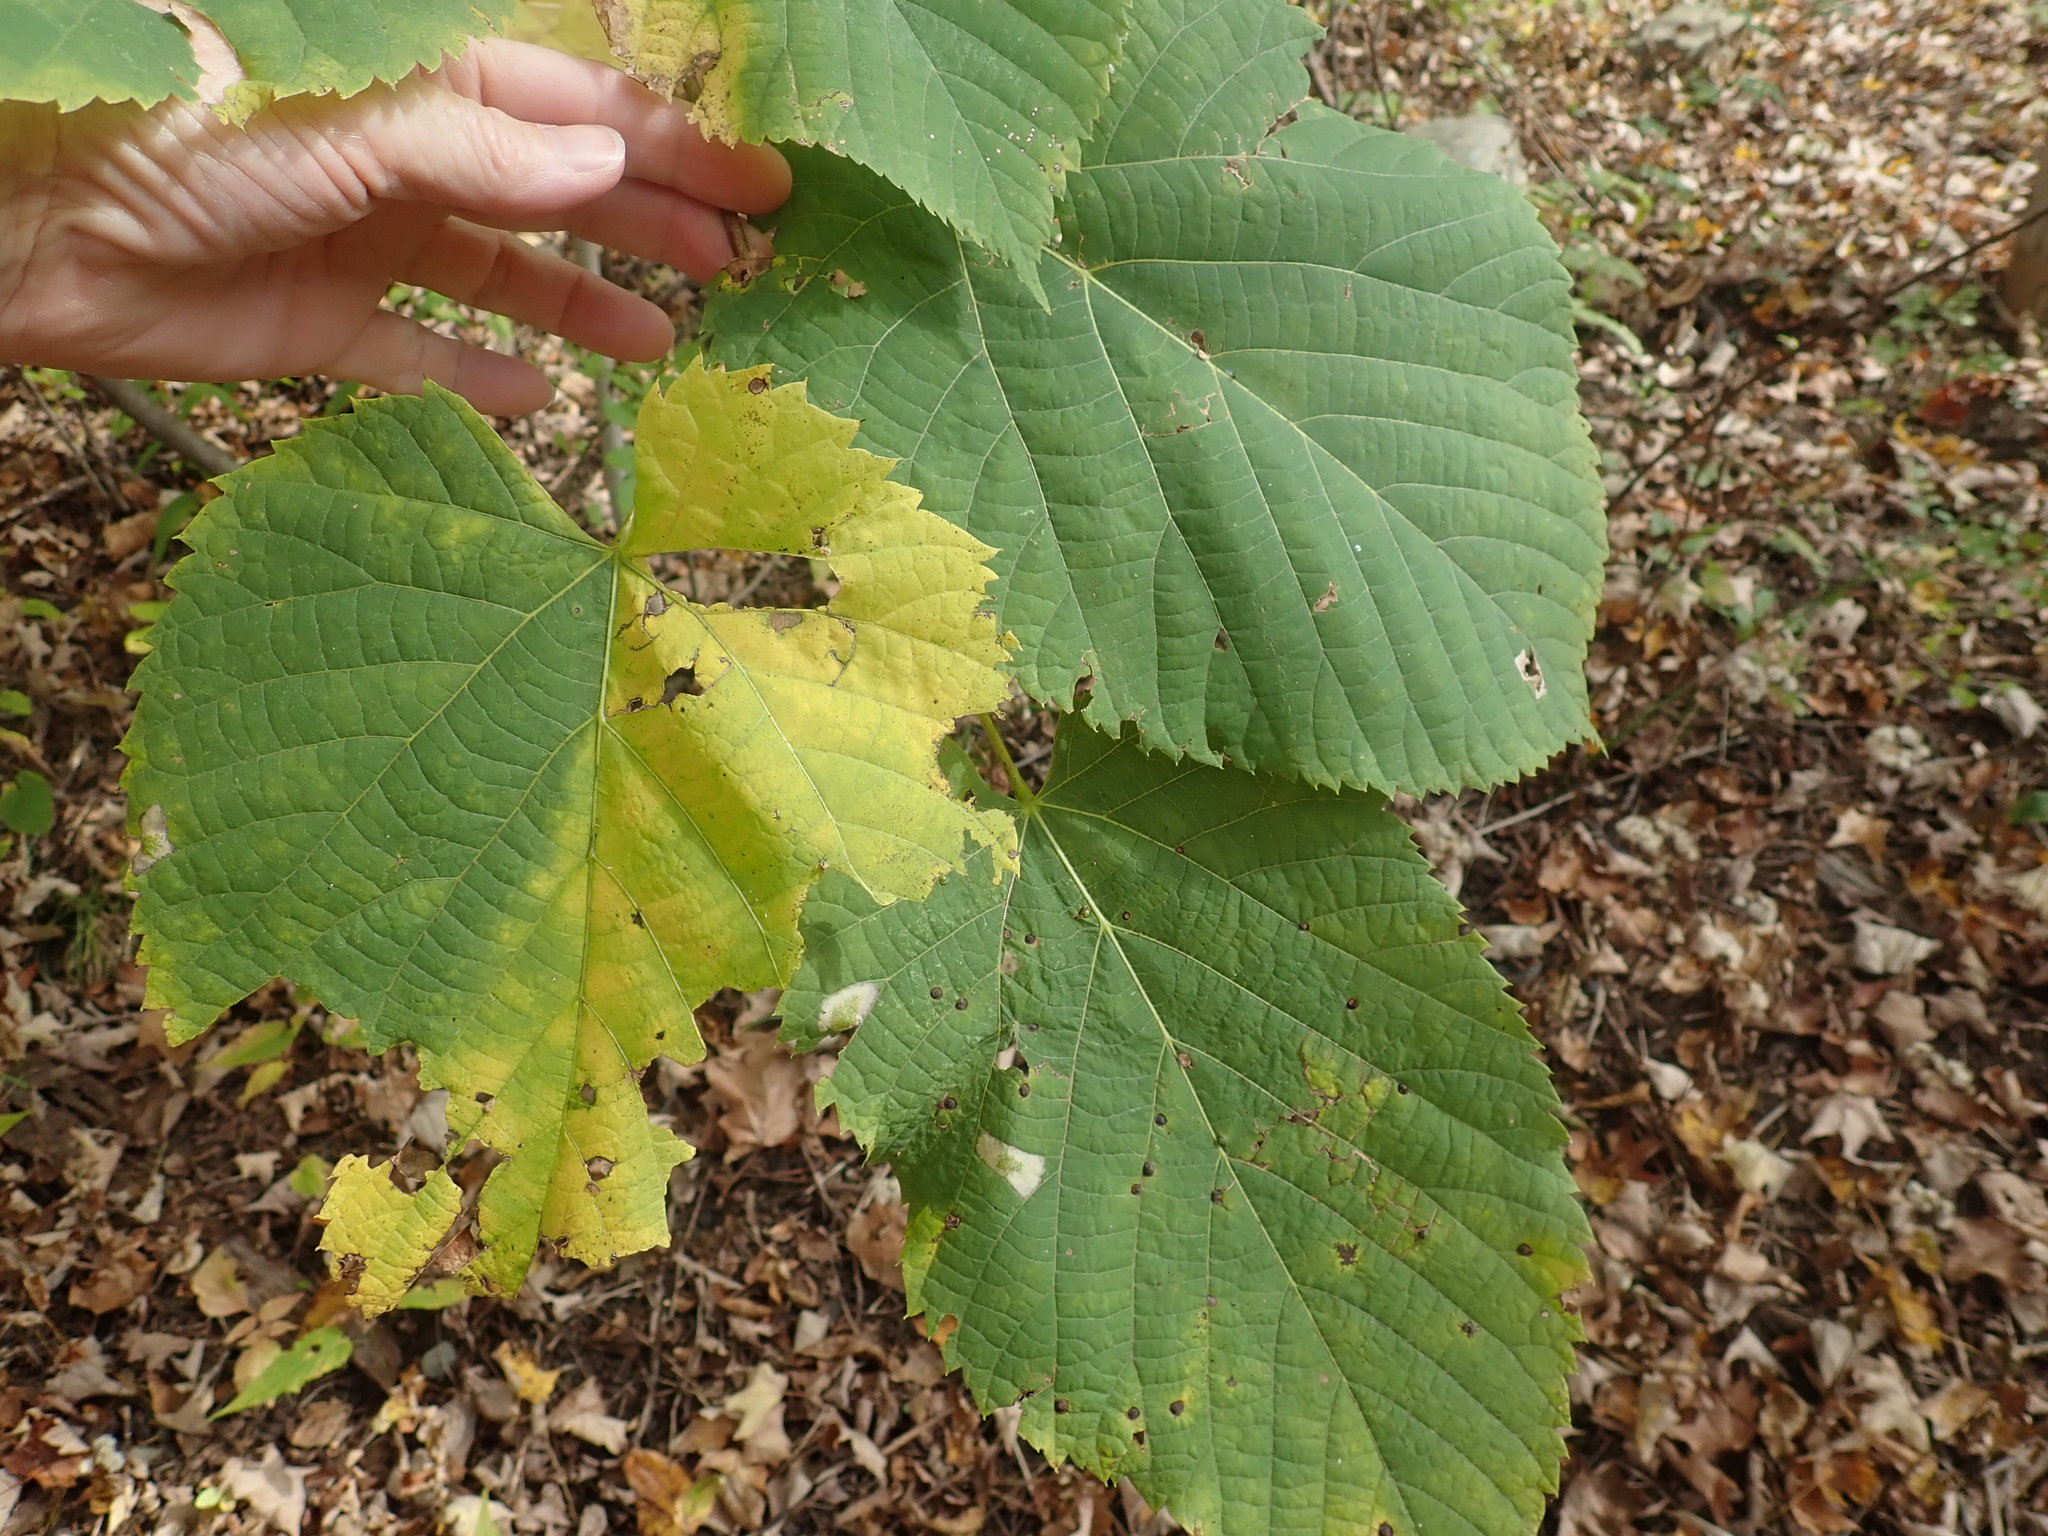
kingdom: Plantae
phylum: Tracheophyta
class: Magnoliopsida
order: Malvales
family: Malvaceae
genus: Tilia
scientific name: Tilia americana
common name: Basswood
